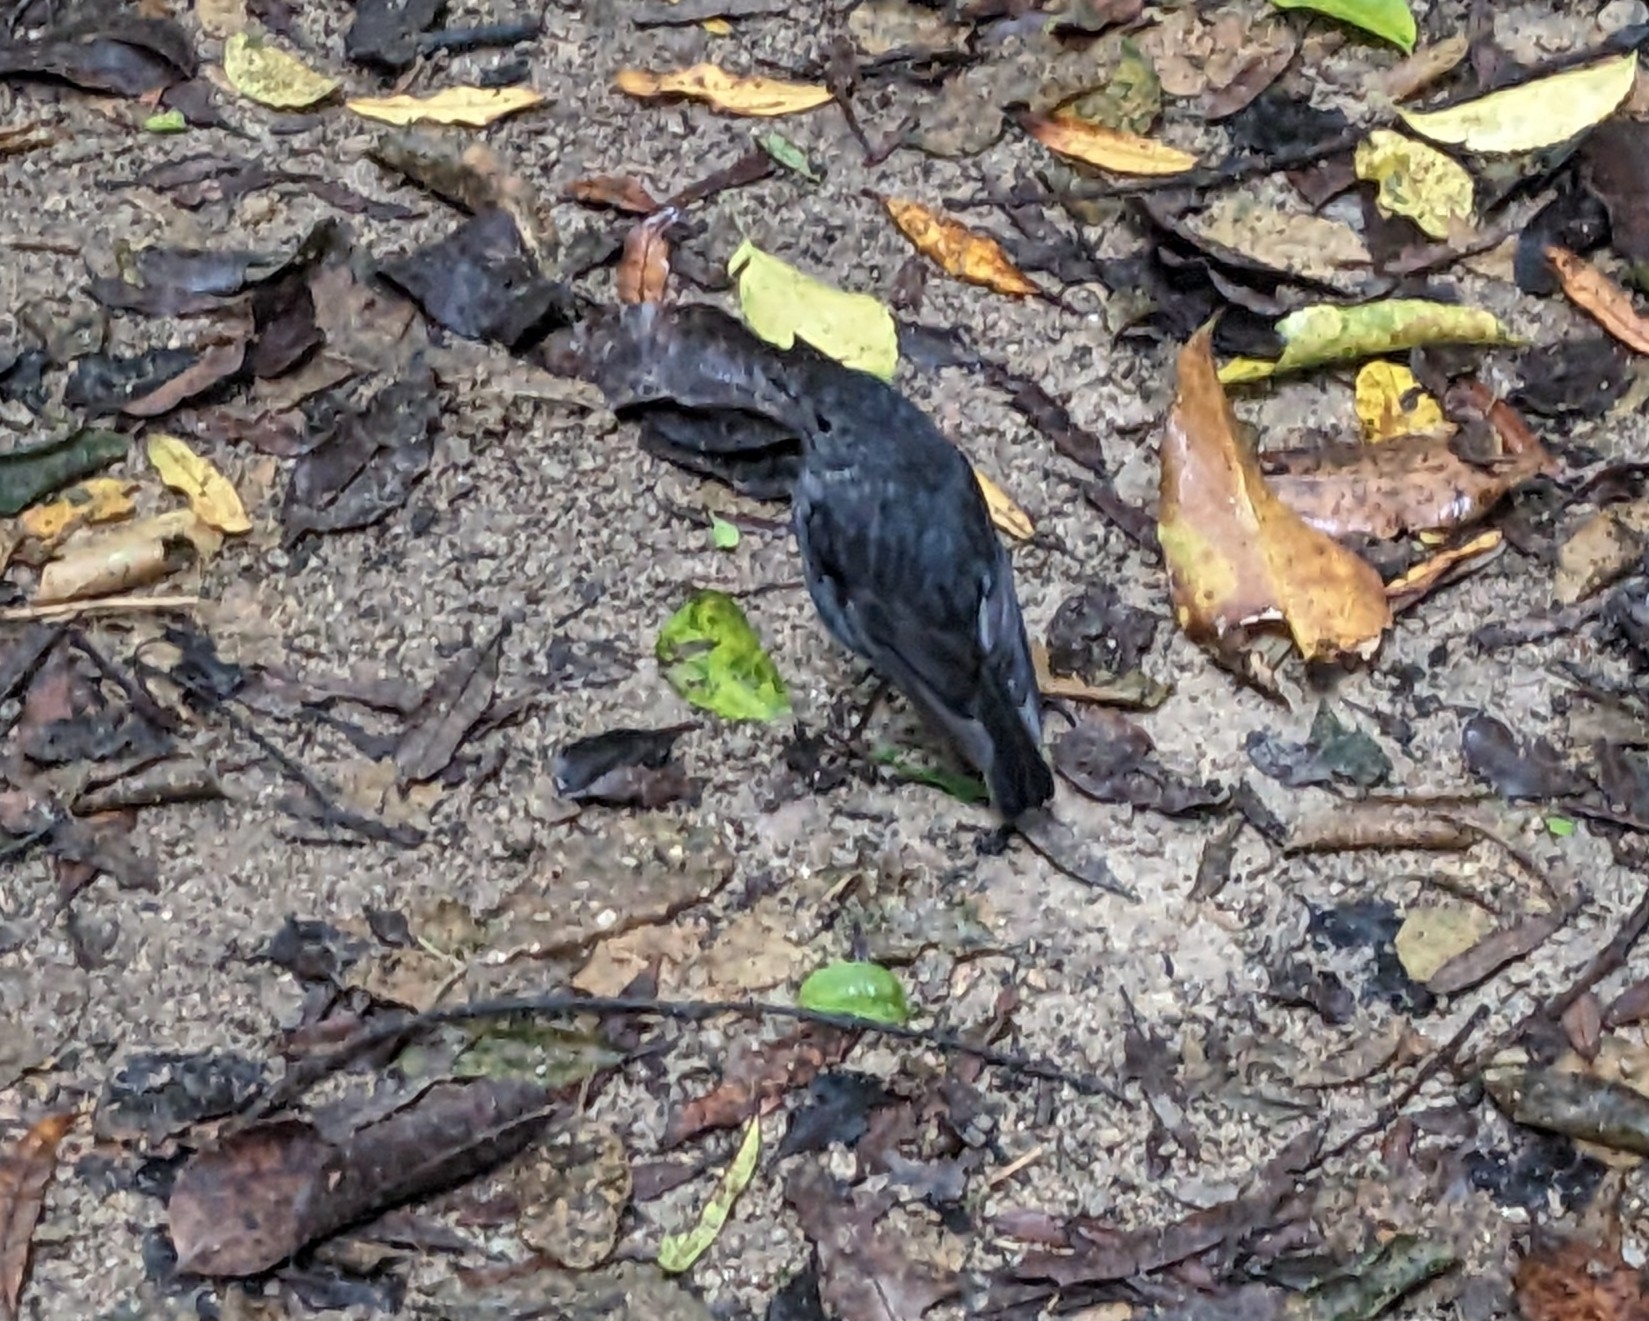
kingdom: Animalia
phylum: Chordata
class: Aves
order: Passeriformes
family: Petroicidae
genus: Petroica
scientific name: Petroica australis
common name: New zealand robin
